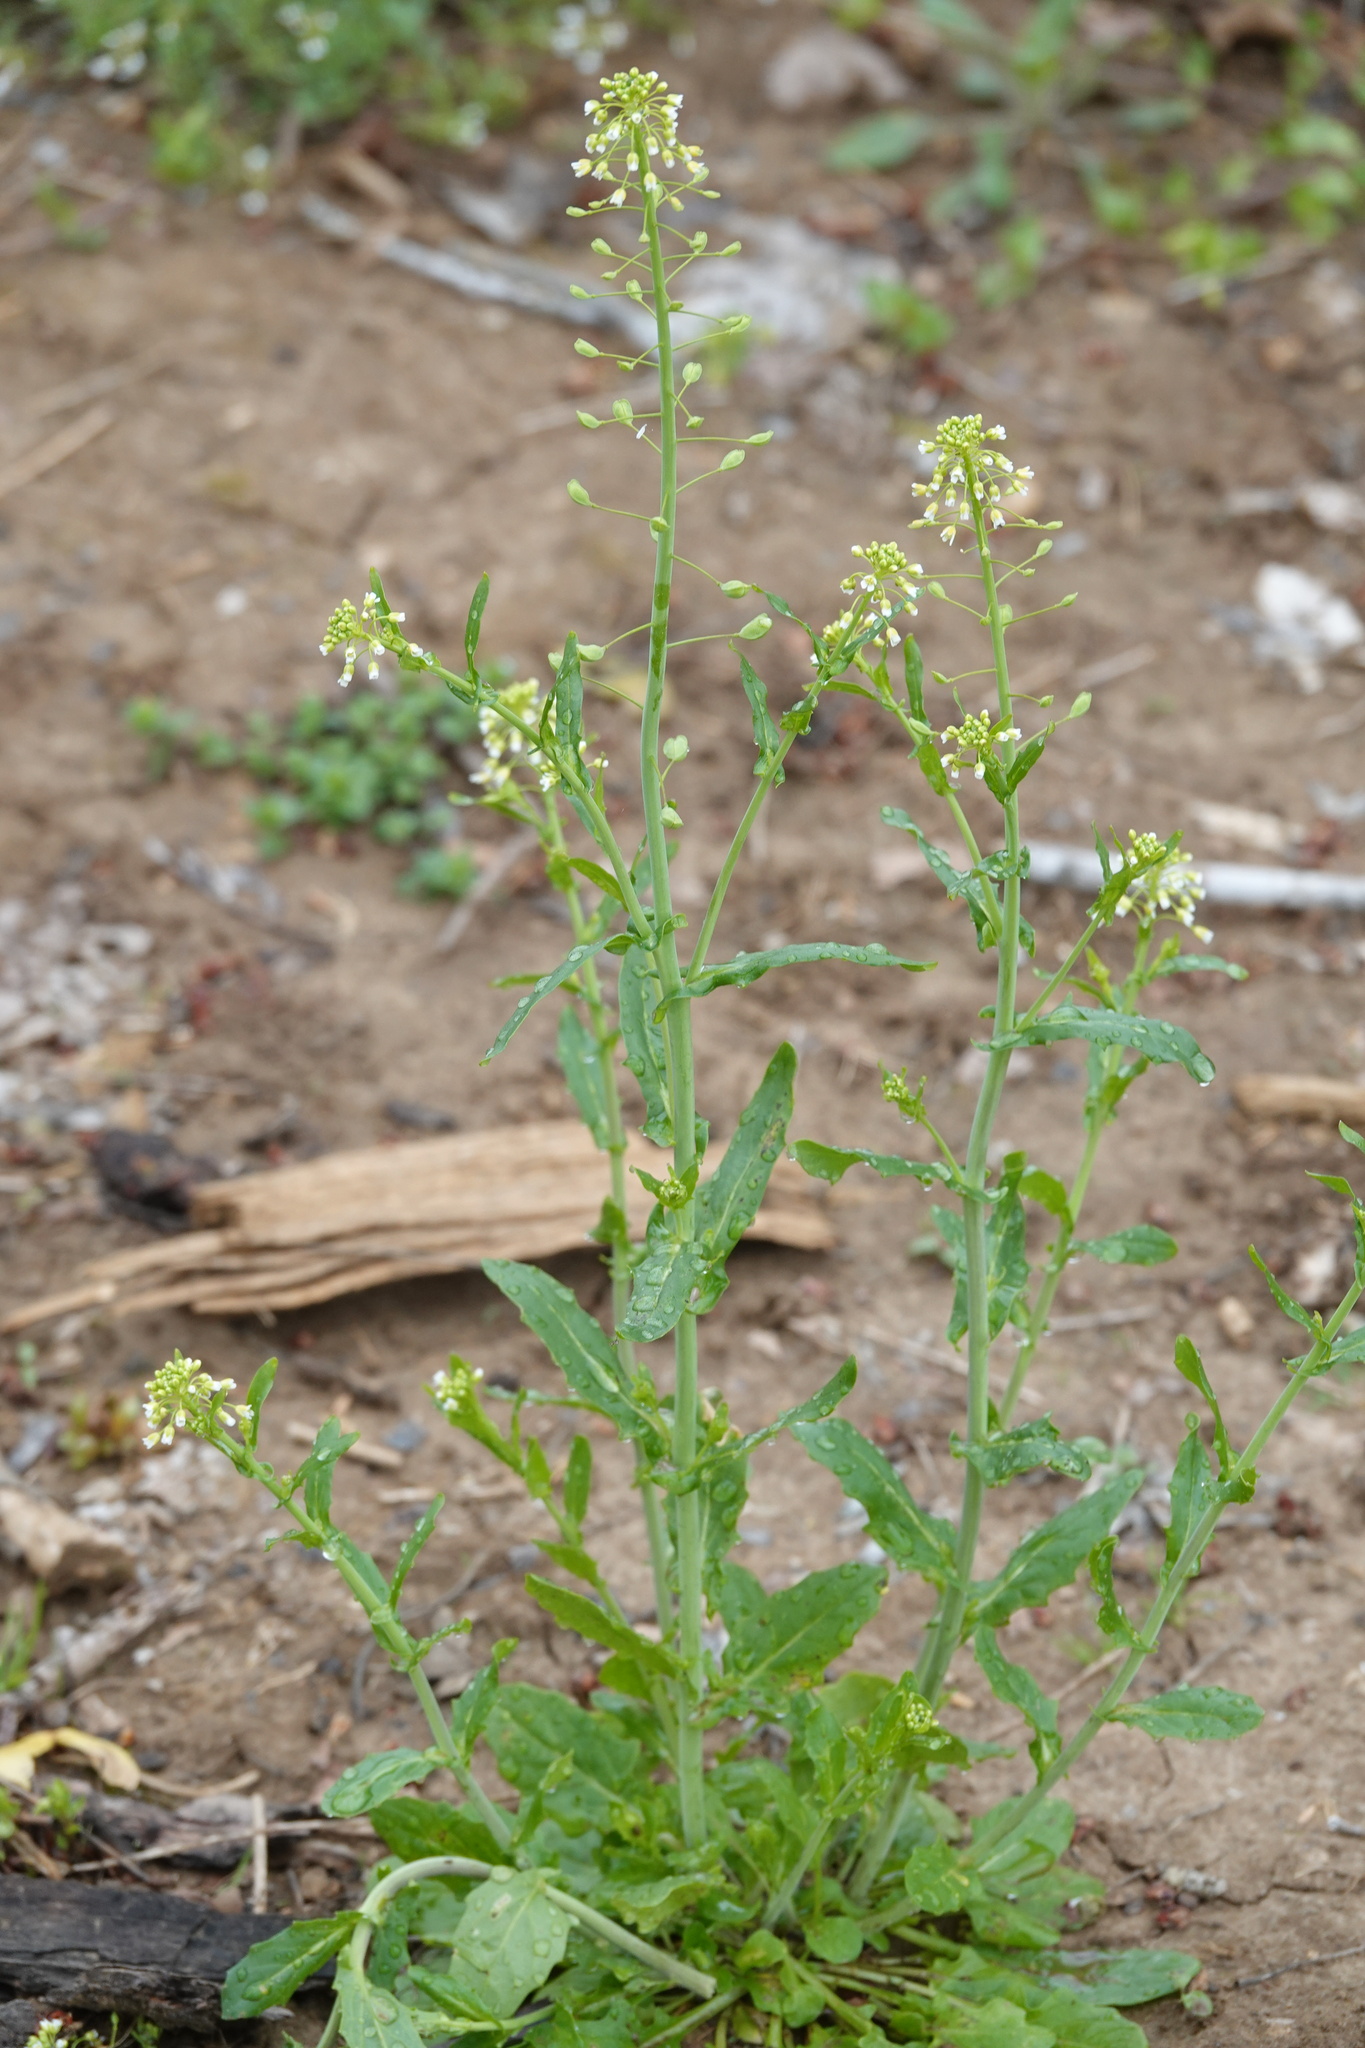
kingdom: Plantae
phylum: Tracheophyta
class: Magnoliopsida
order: Brassicales
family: Brassicaceae
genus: Mummenhoffia
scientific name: Mummenhoffia alliacea
